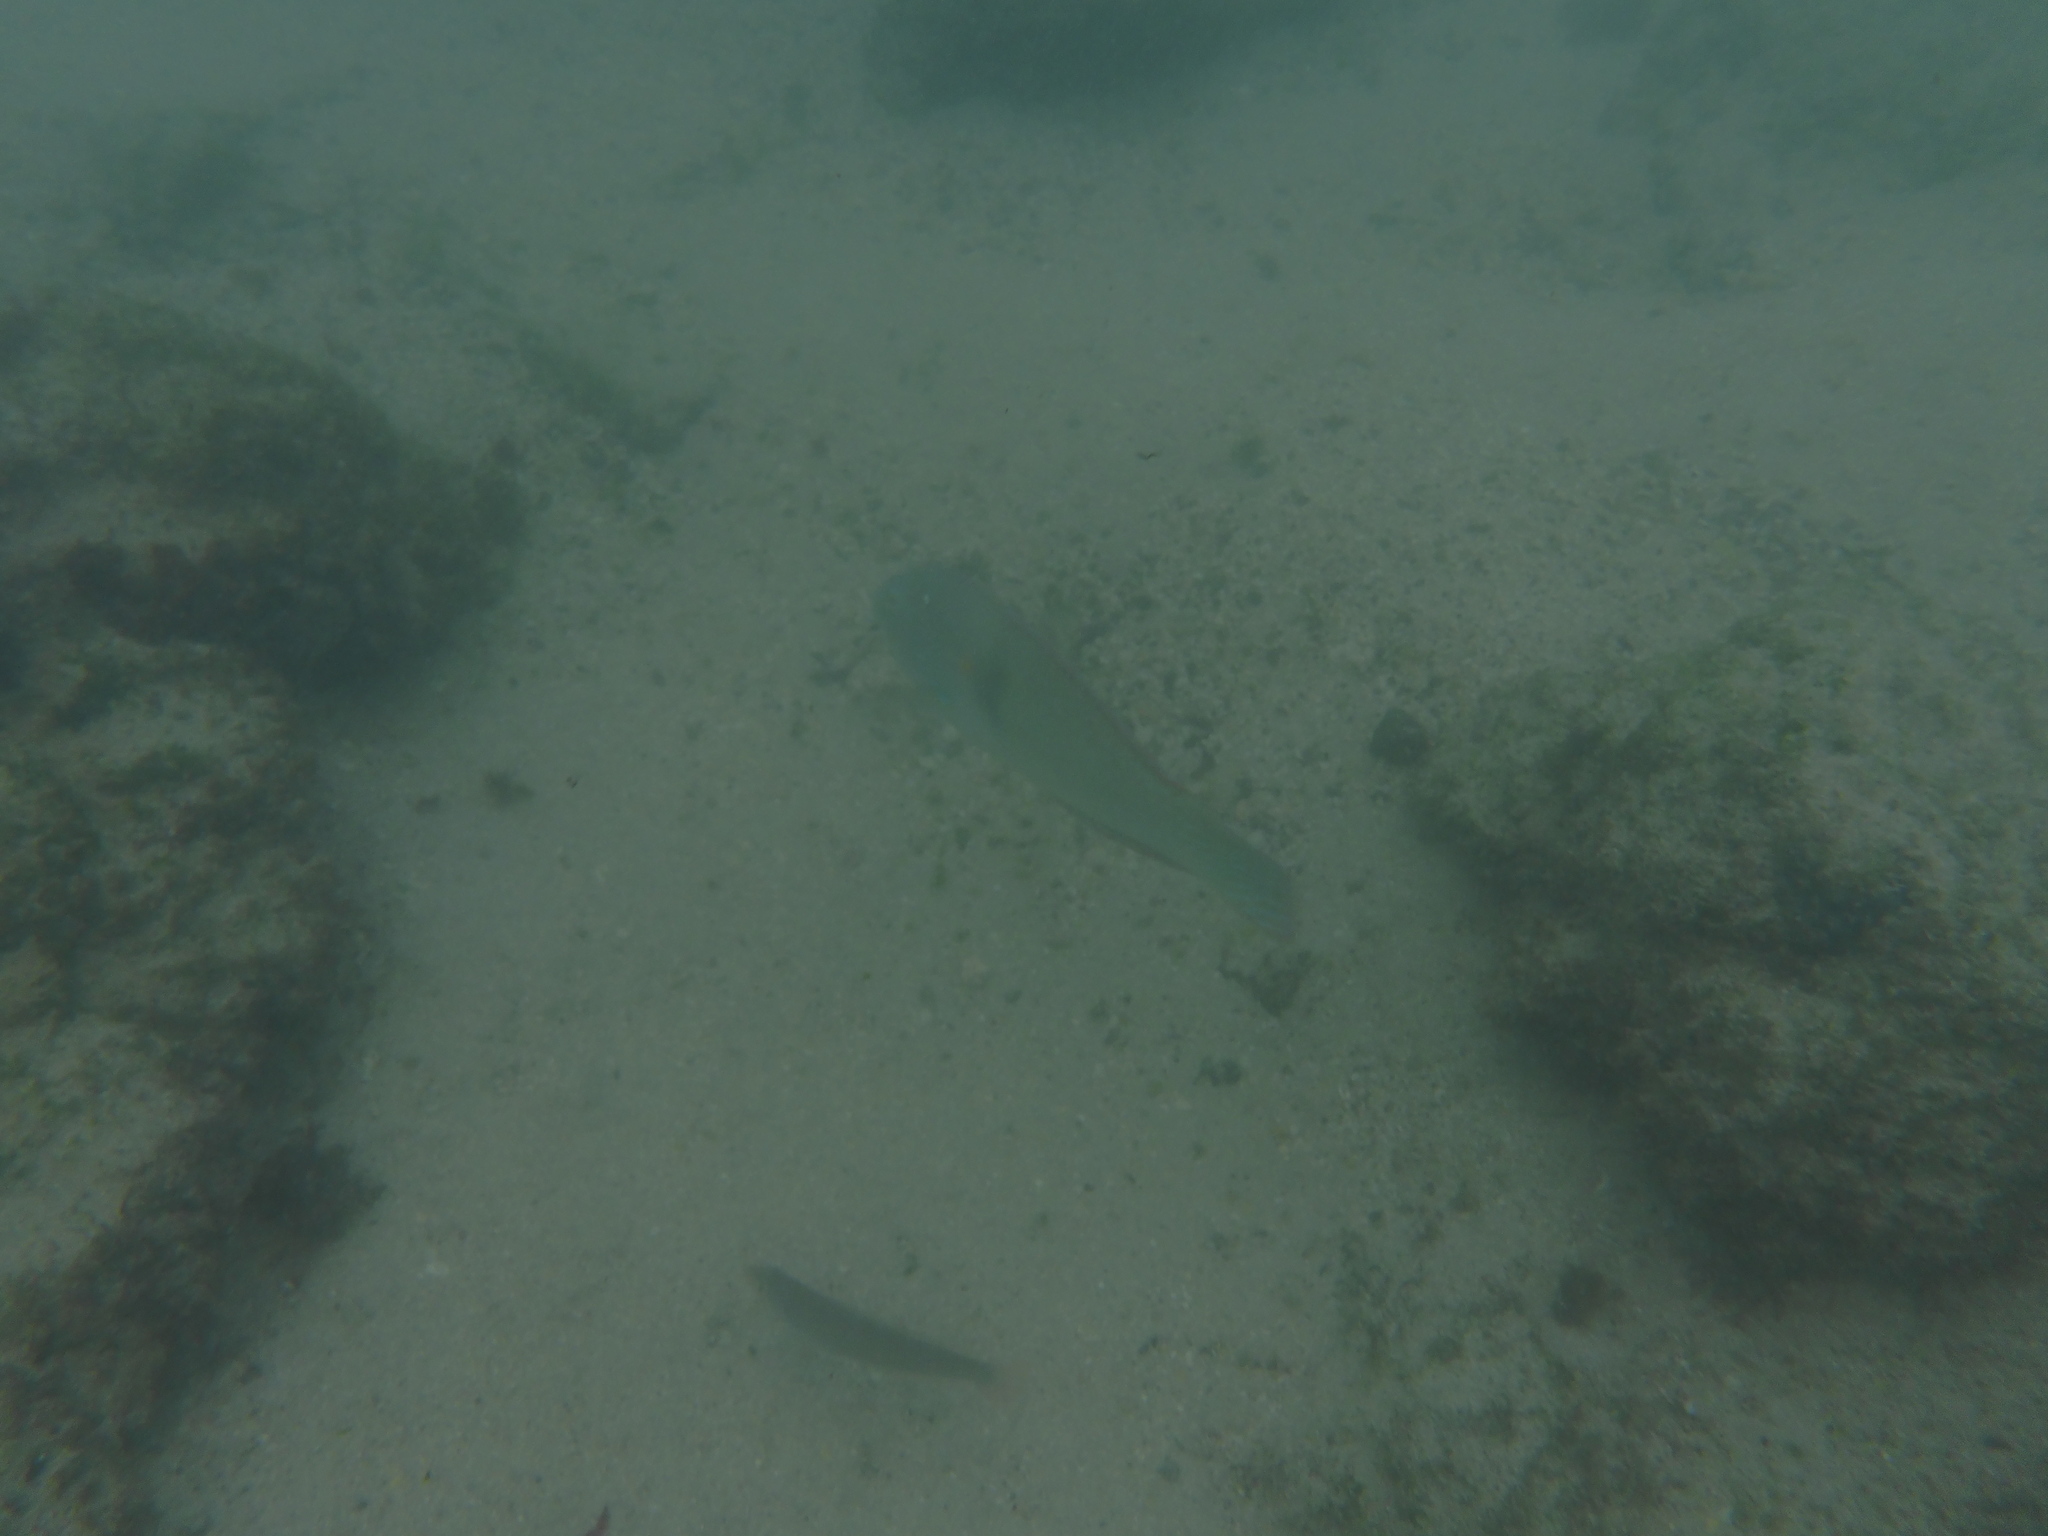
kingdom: Animalia
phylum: Chordata
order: Perciformes
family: Labridae
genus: Halichoeres
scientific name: Halichoeres nicholsi
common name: Spinster wrasse
